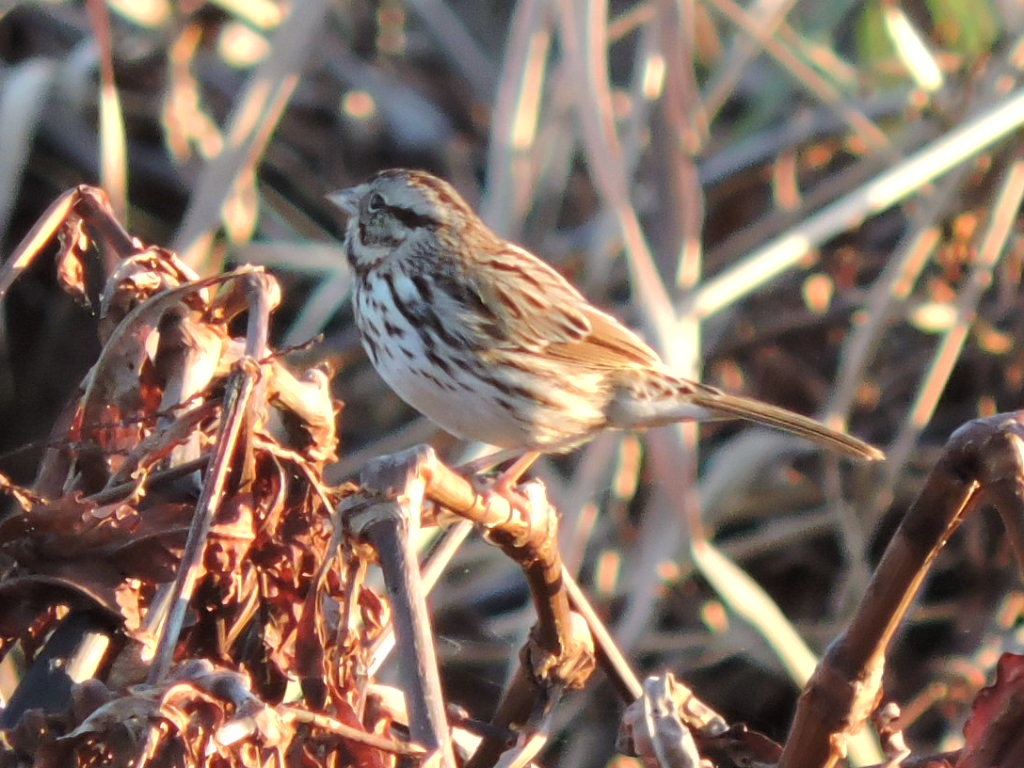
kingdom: Animalia
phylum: Chordata
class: Aves
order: Passeriformes
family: Passerellidae
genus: Melospiza
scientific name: Melospiza melodia
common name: Song sparrow
